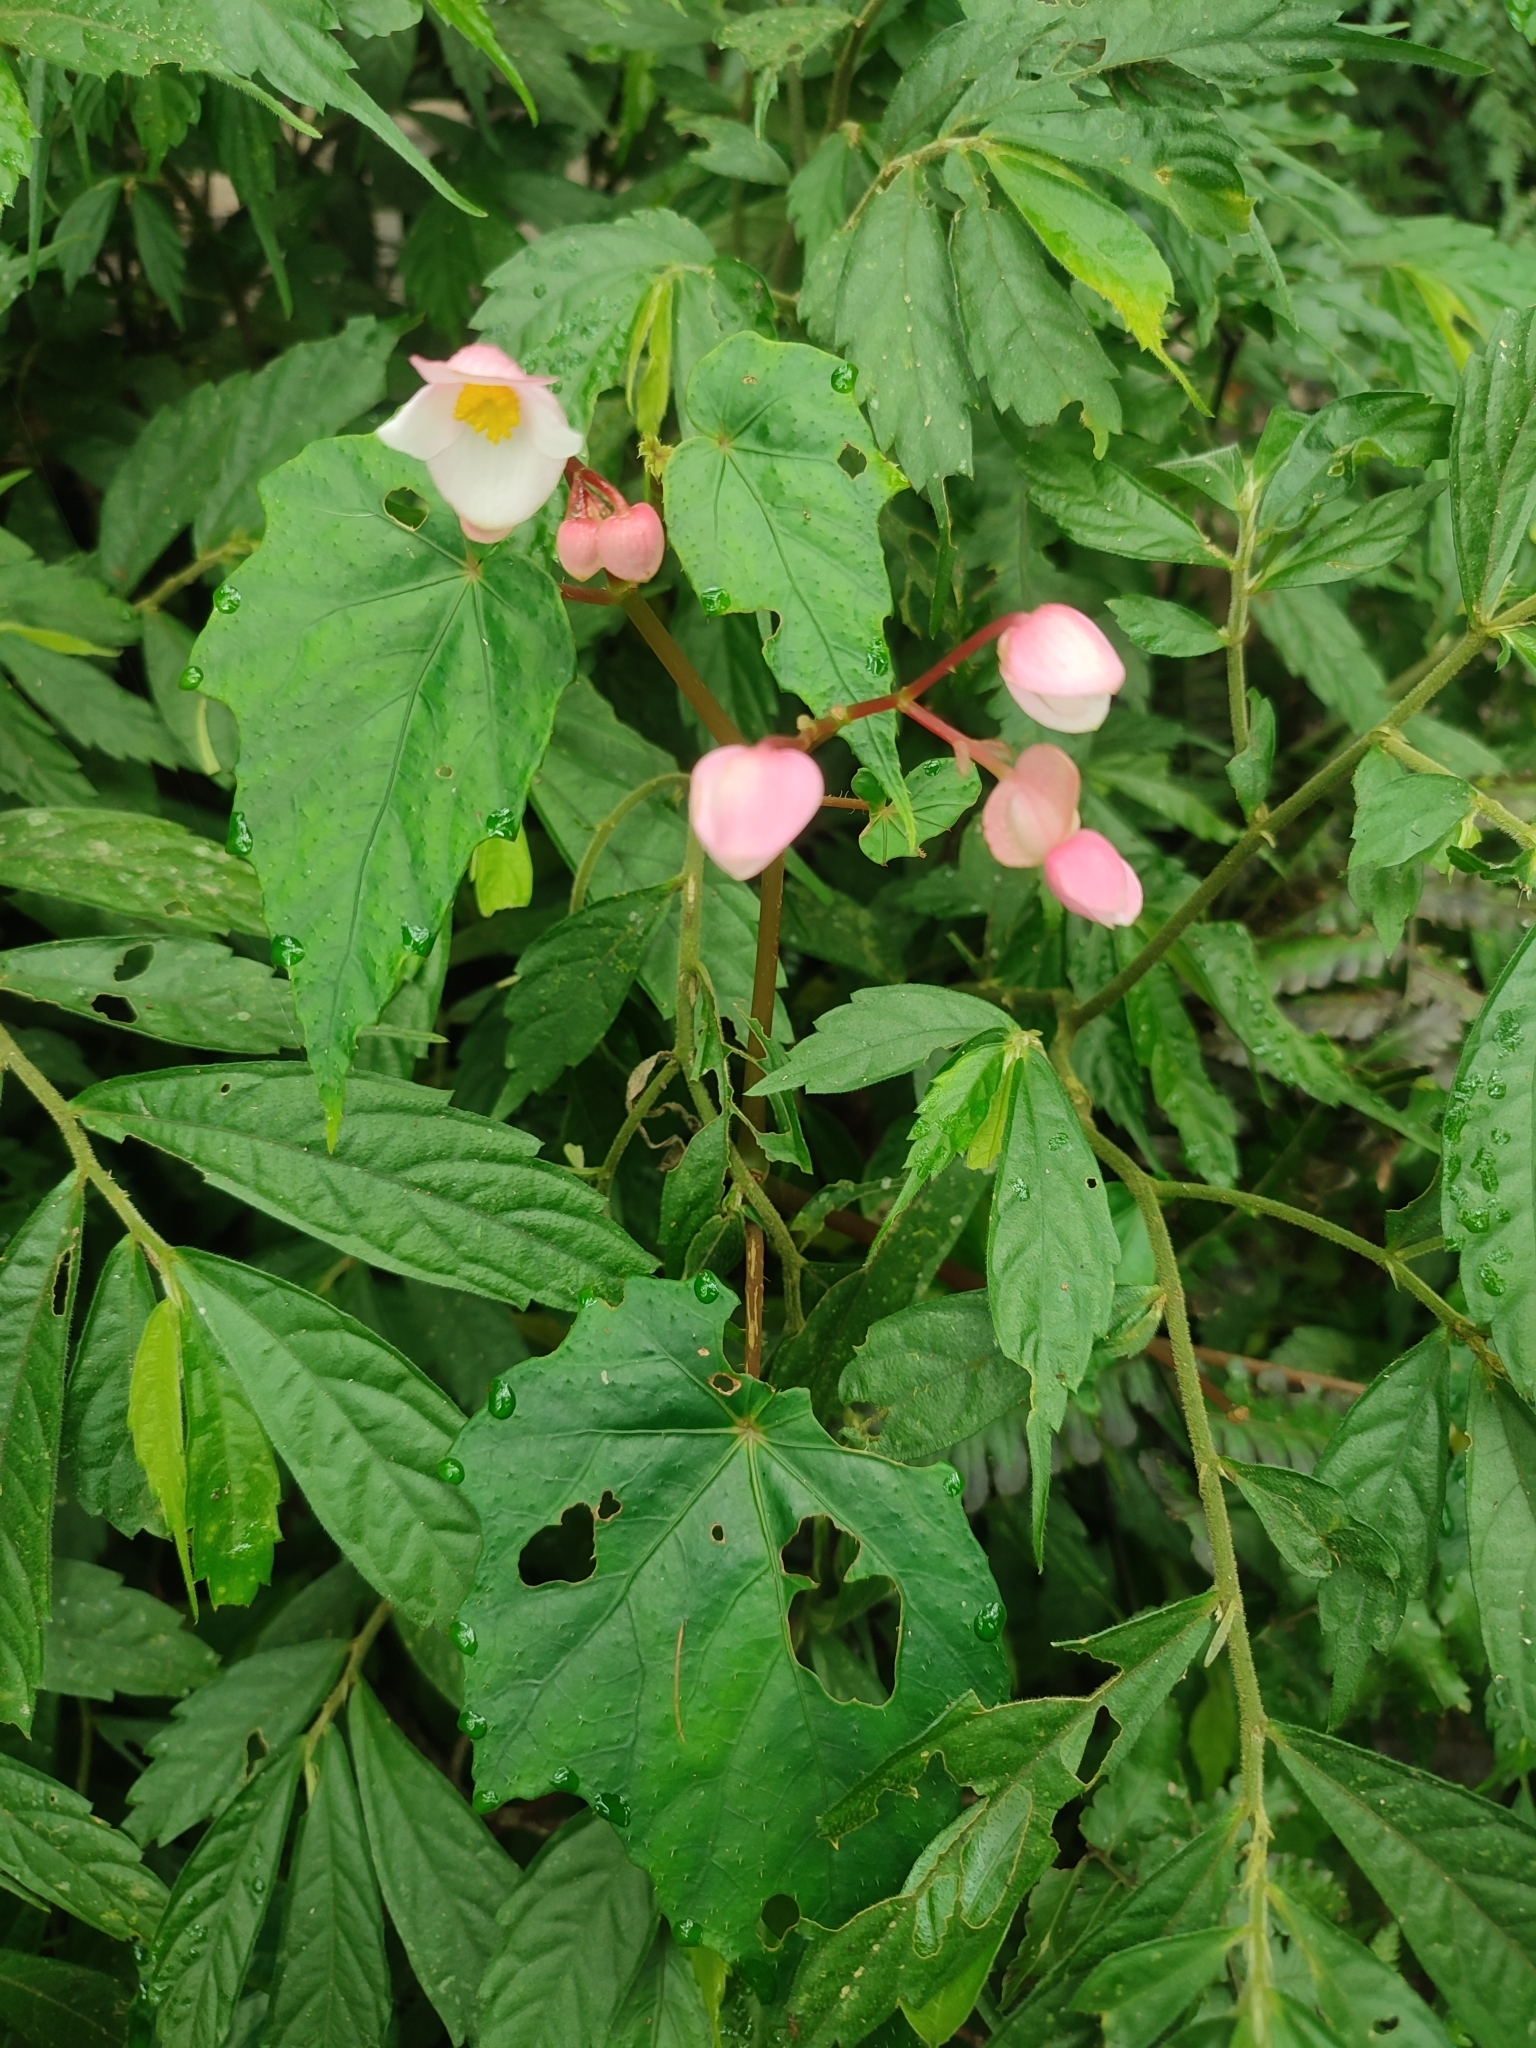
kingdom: Plantae
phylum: Tracheophyta
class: Magnoliopsida
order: Cucurbitales
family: Begoniaceae
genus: Begonia
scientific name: Begonia formosana
